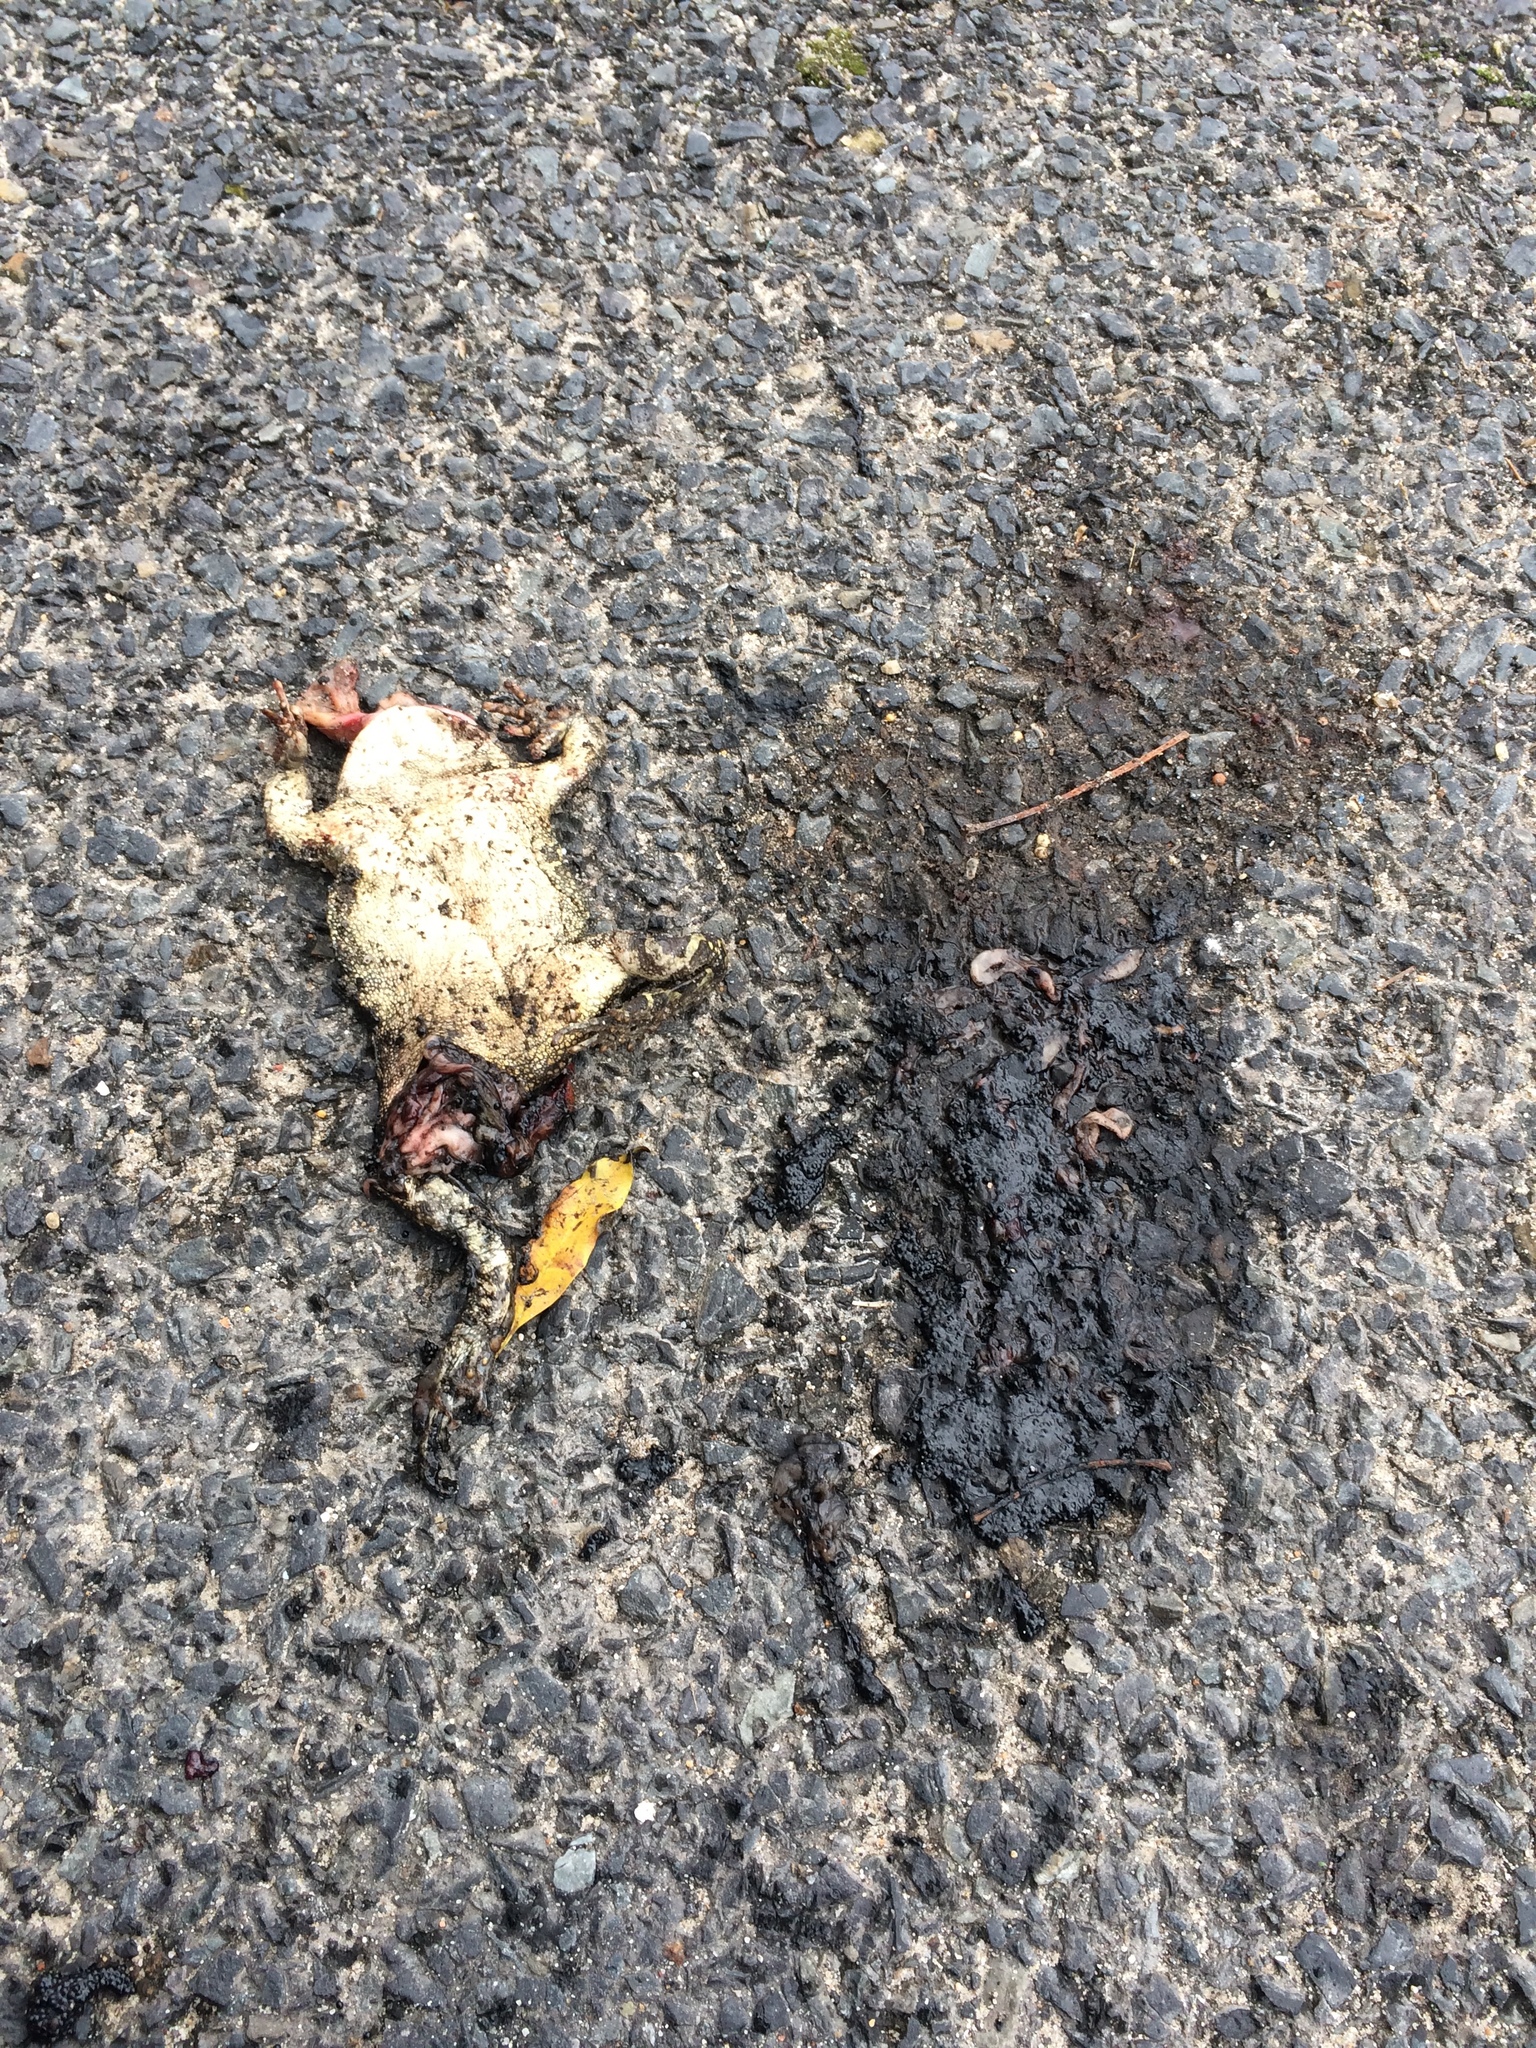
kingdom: Animalia
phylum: Chordata
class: Amphibia
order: Anura
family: Bufonidae
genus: Sclerophrys
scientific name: Sclerophrys pantherina
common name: Panther toad
